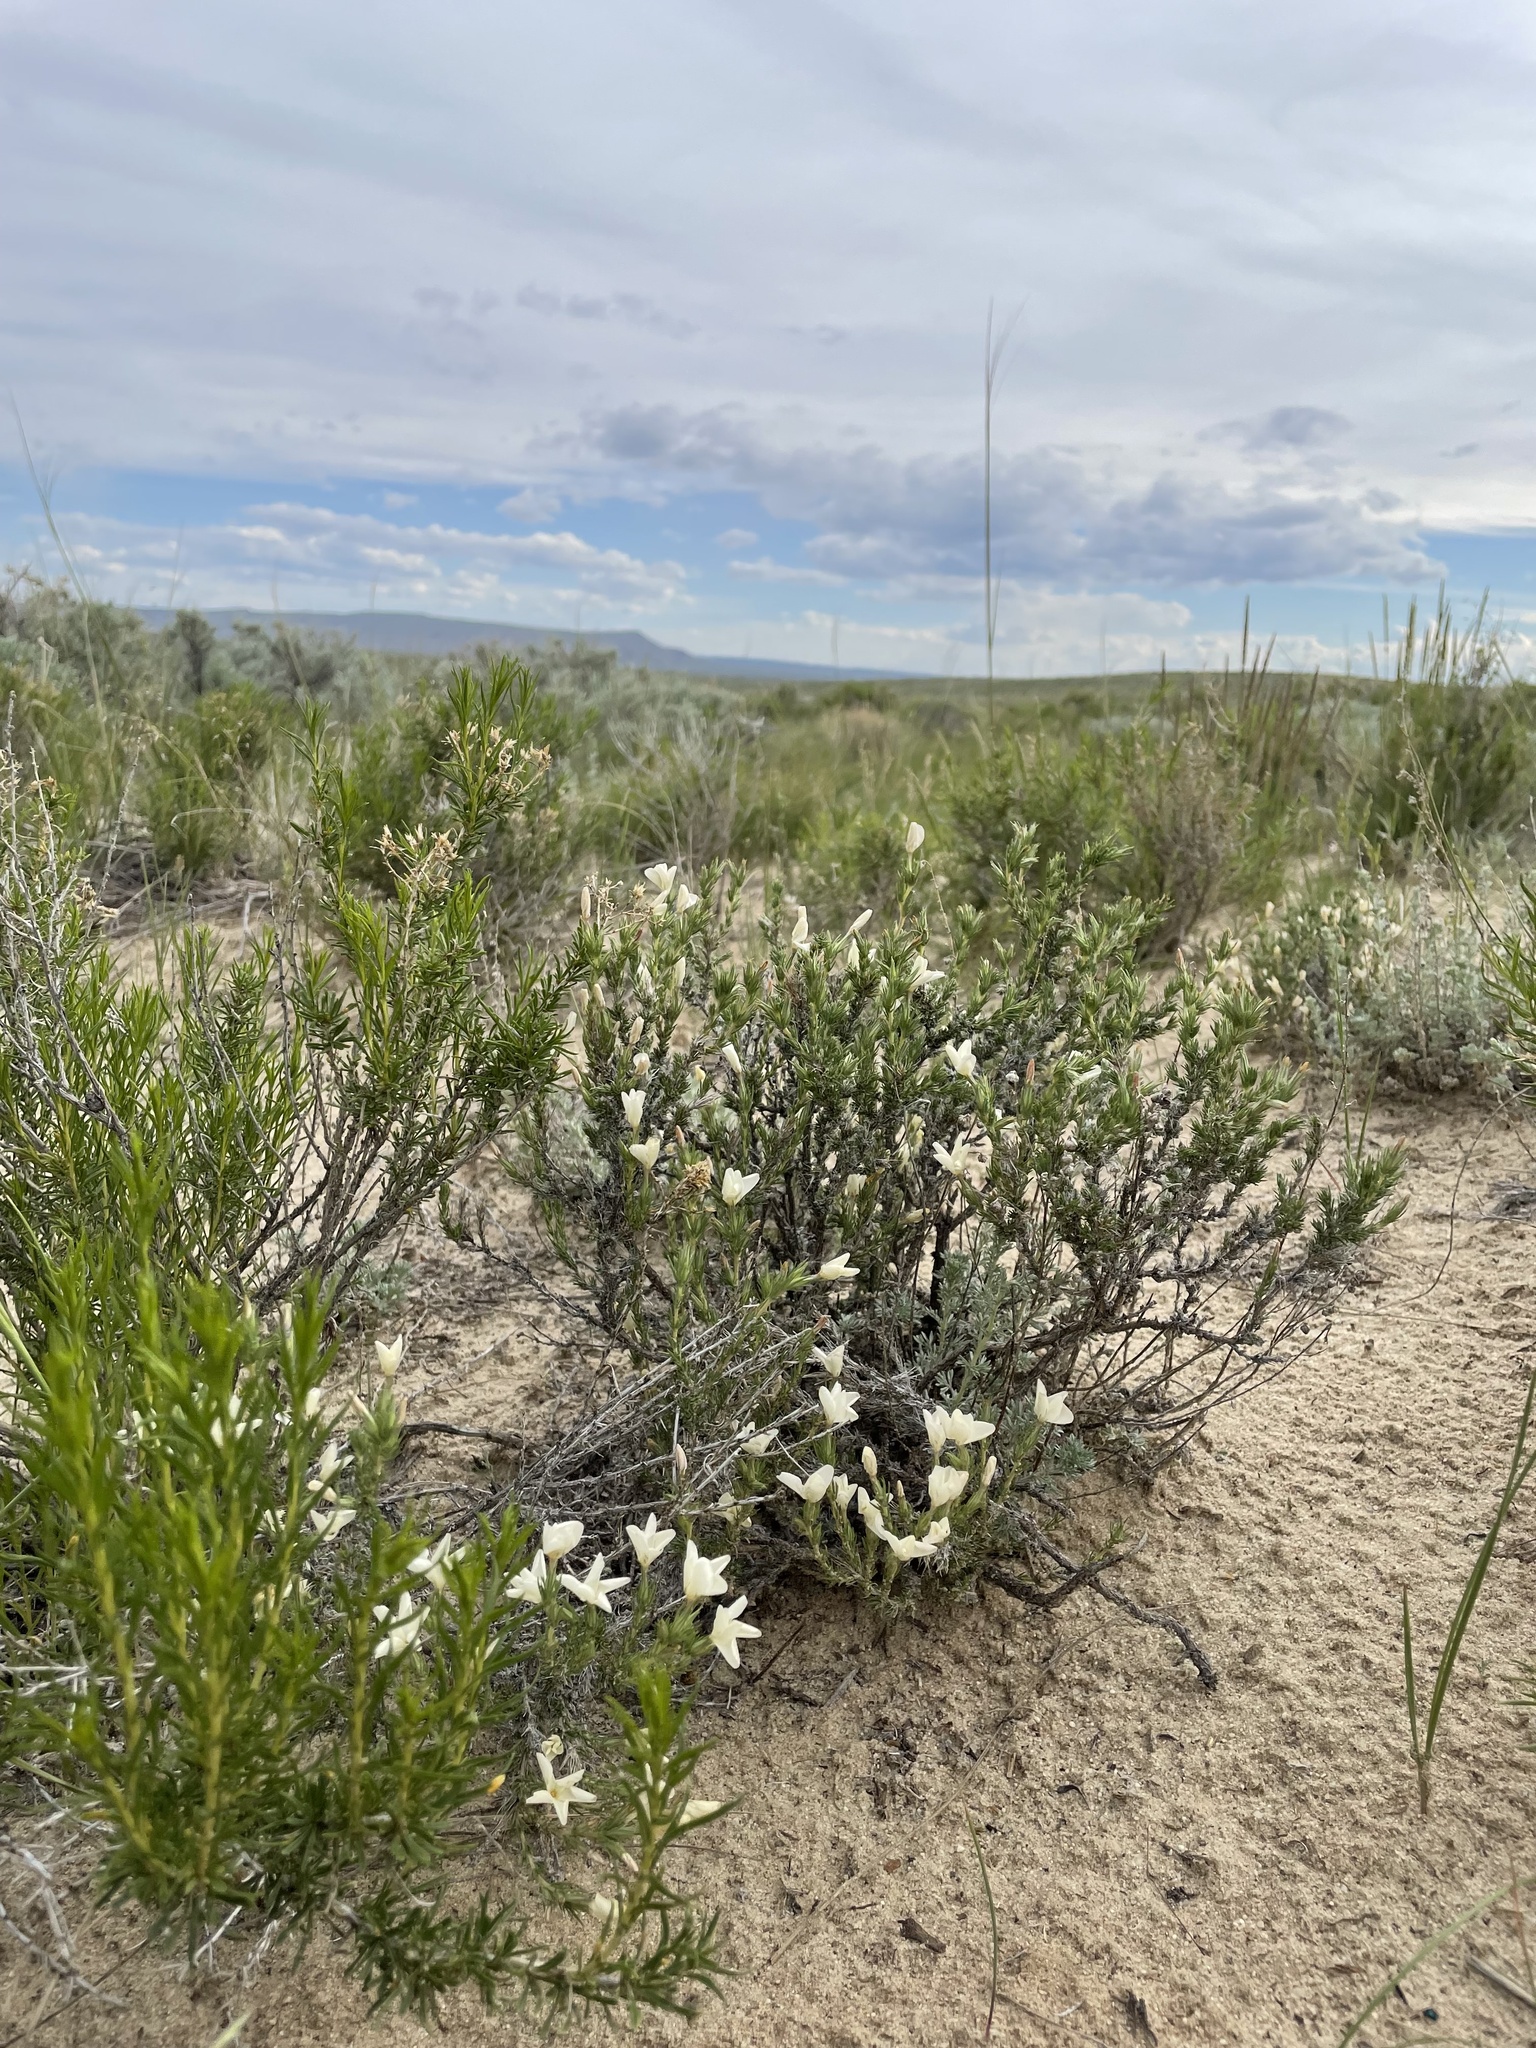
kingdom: Plantae
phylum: Tracheophyta
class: Magnoliopsida
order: Ericales
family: Polemoniaceae
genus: Linanthus
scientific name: Linanthus pungens
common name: Granite prickly phlox
